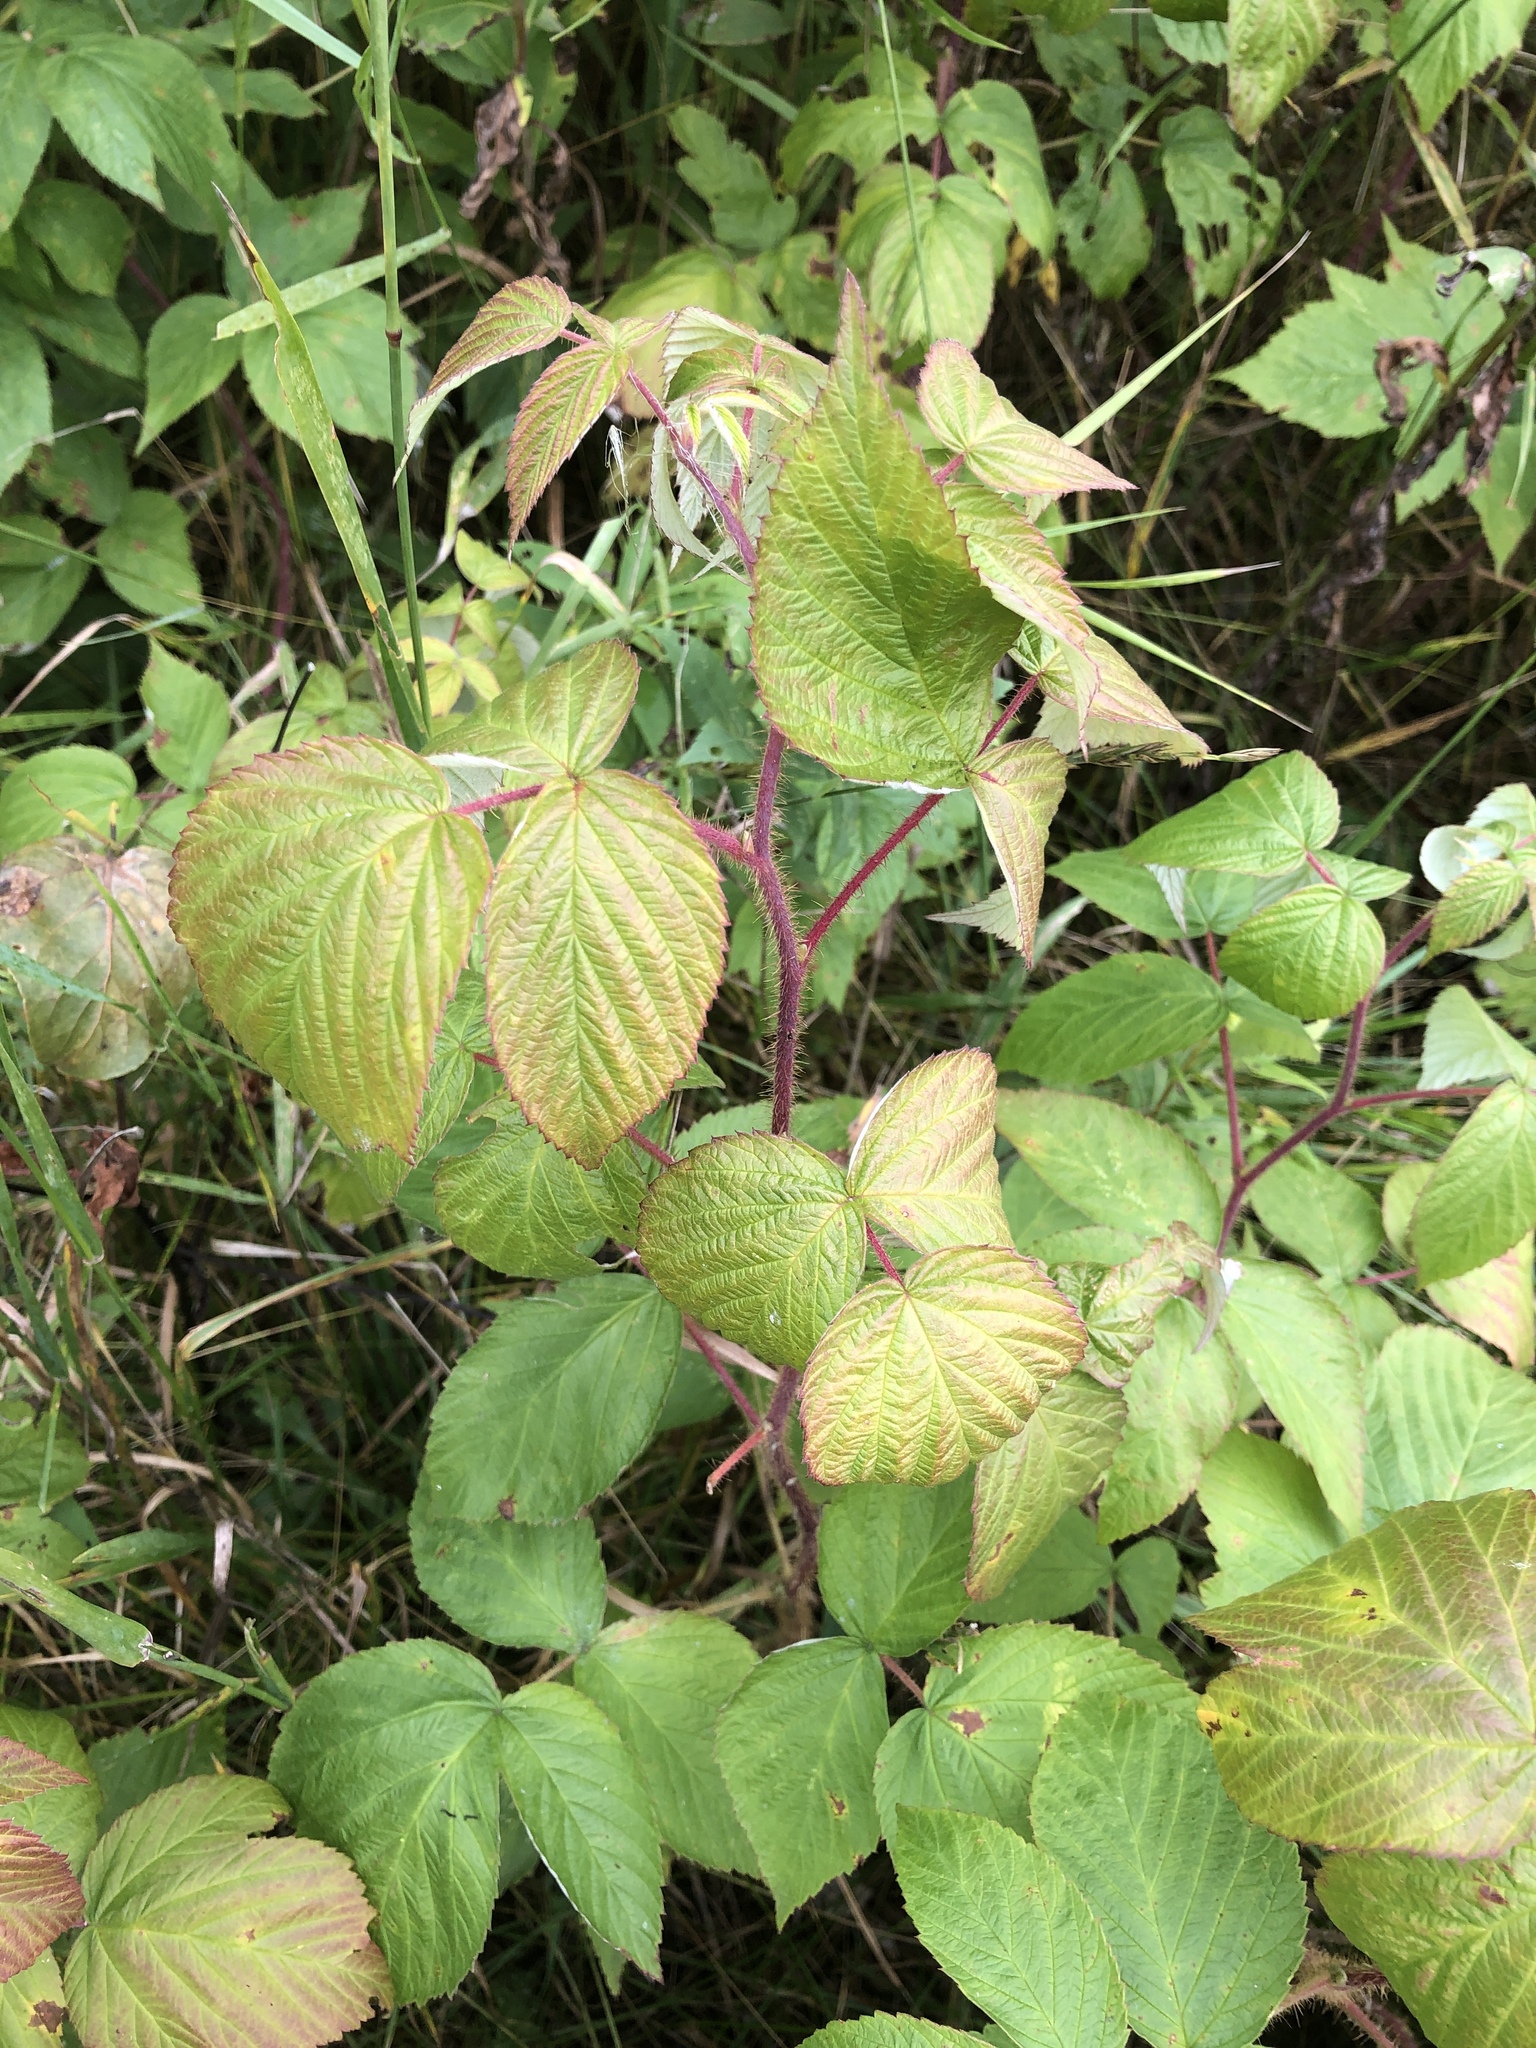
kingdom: Plantae
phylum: Tracheophyta
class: Magnoliopsida
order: Rosales
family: Rosaceae
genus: Rubus
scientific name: Rubus idaeus
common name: Raspberry
